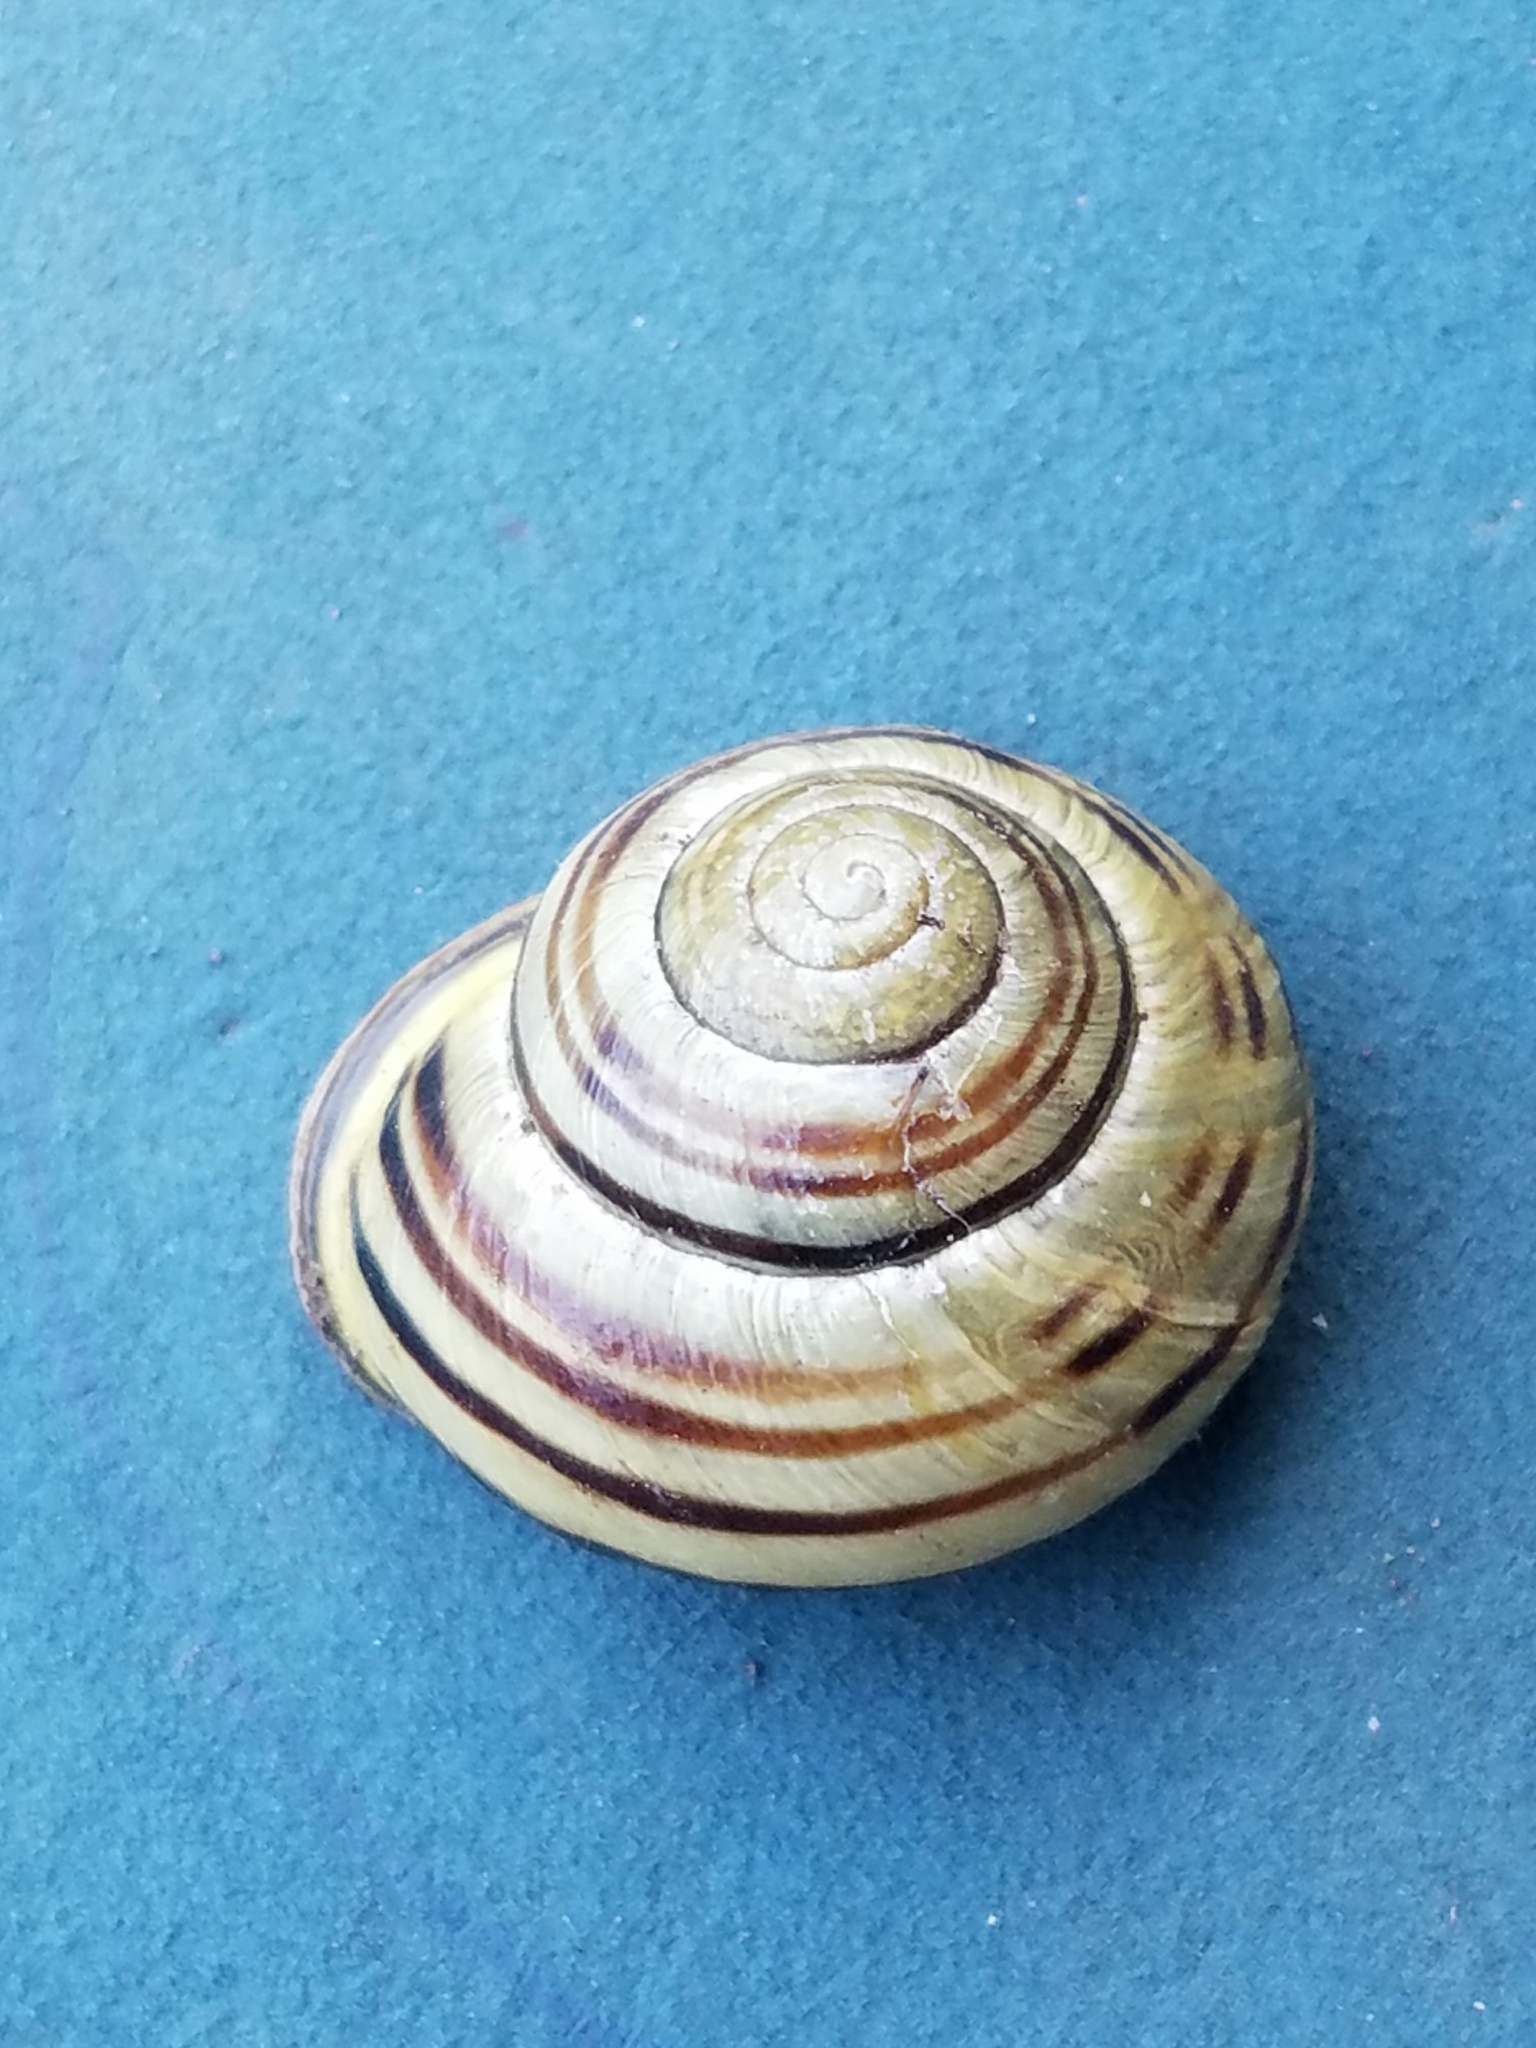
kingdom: Animalia
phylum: Mollusca
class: Gastropoda
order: Stylommatophora
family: Helicidae
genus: Cepaea
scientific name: Cepaea nemoralis
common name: Grovesnail
